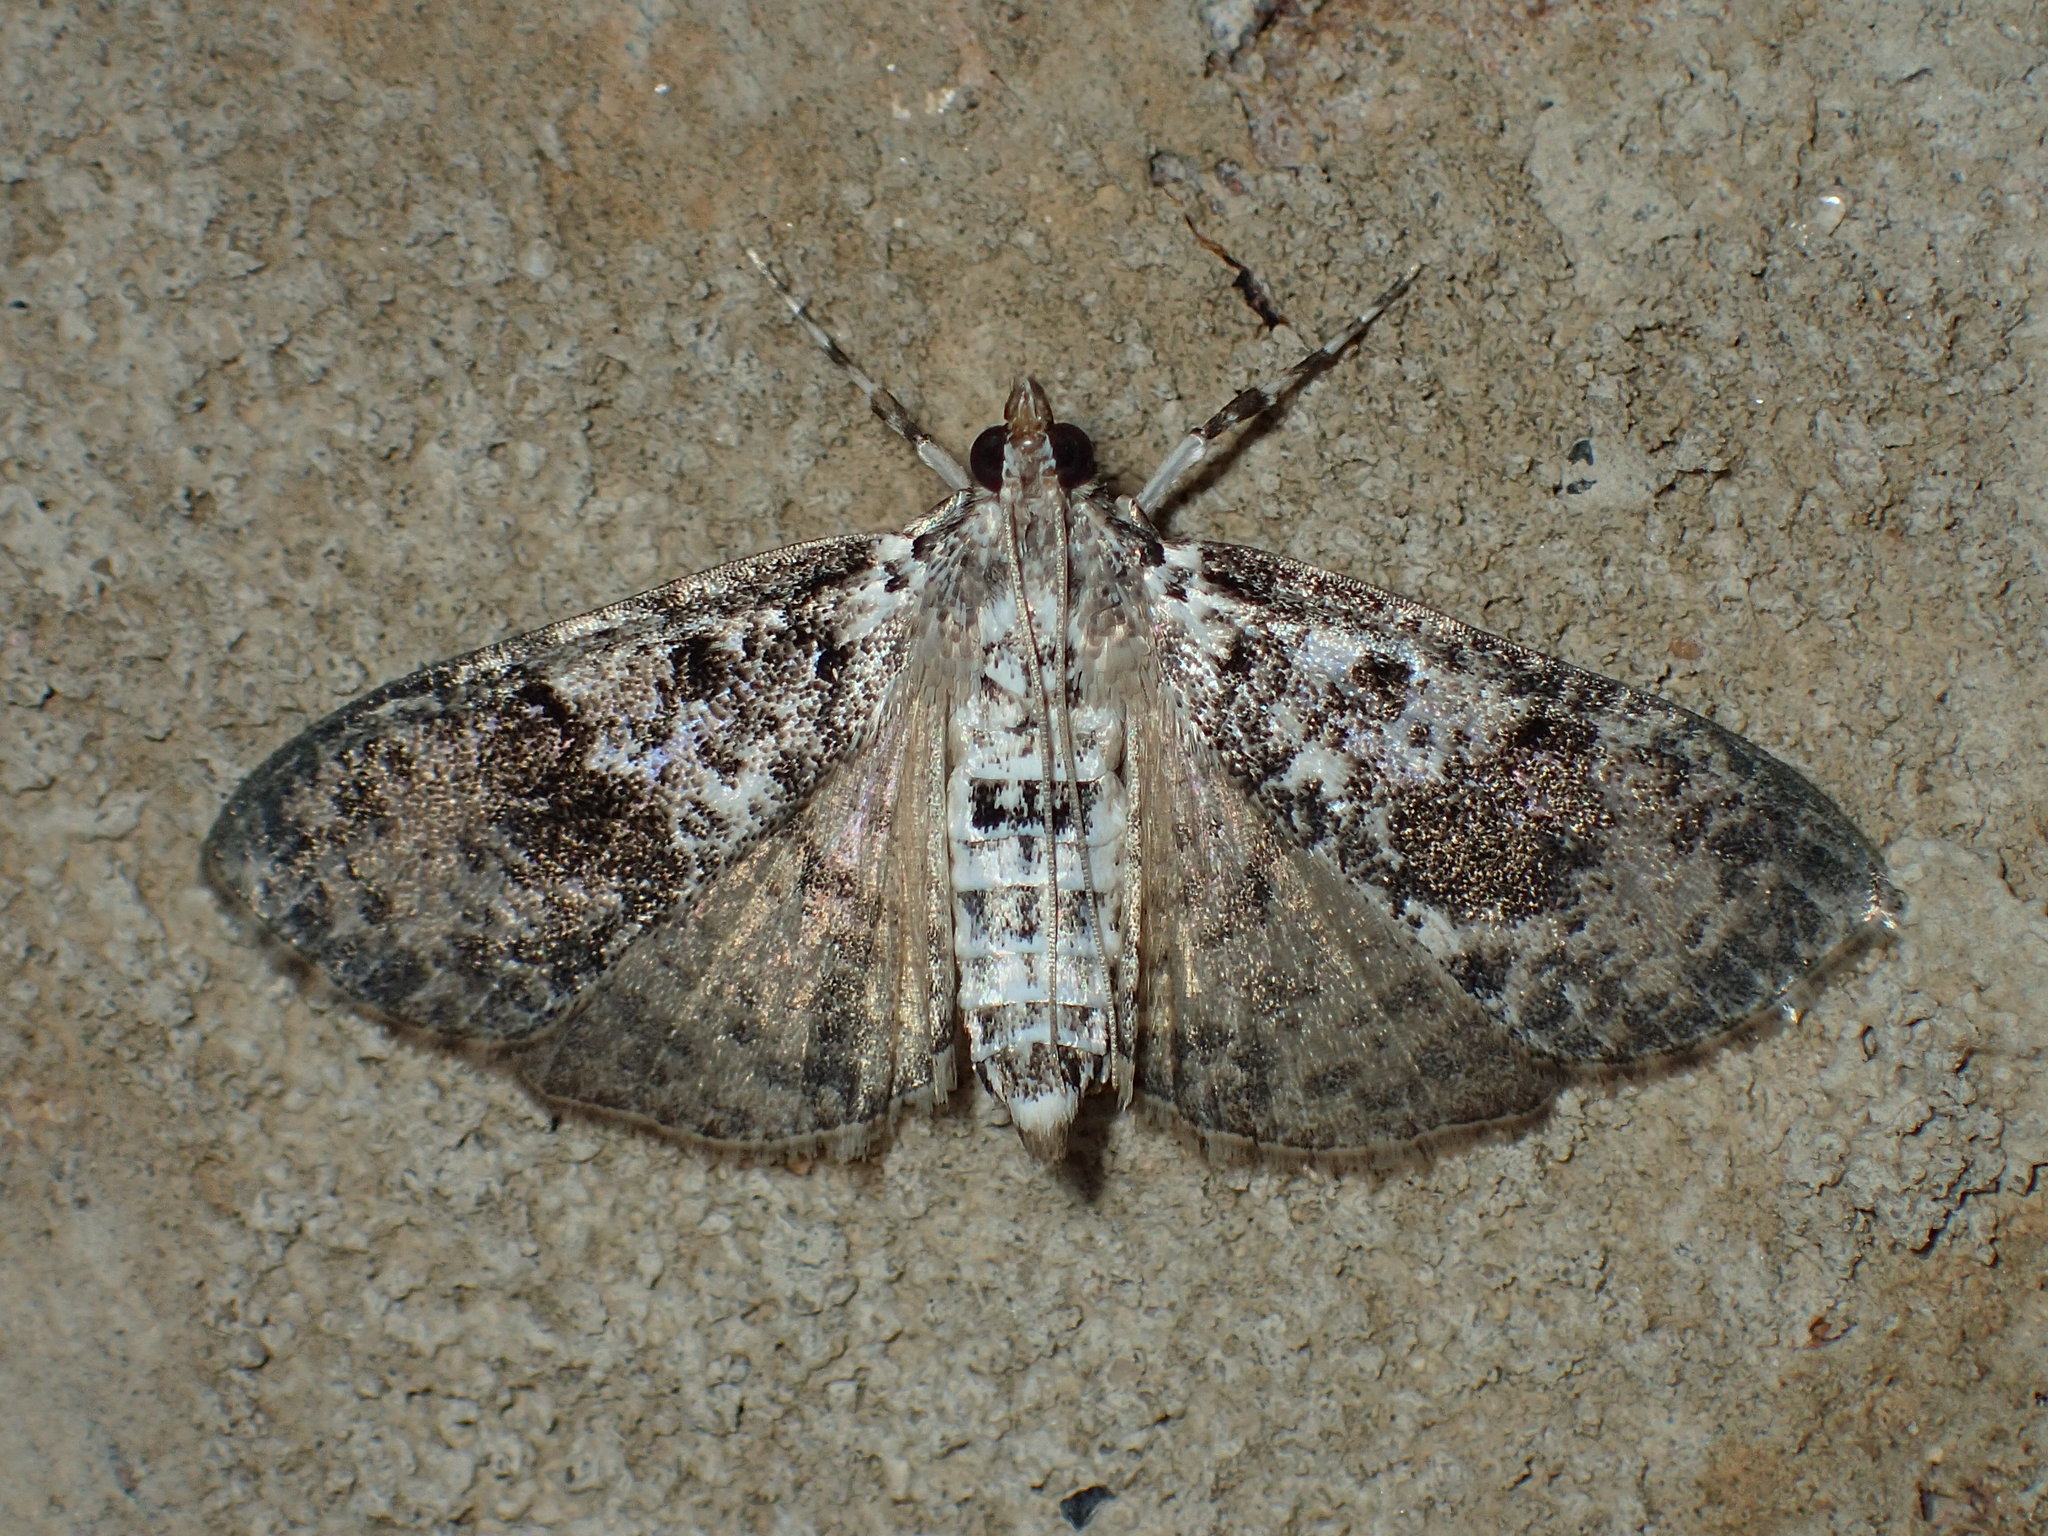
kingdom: Animalia
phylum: Arthropoda
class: Insecta
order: Lepidoptera
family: Crambidae
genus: Palpita
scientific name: Palpita magniferalis
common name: Splendid palpita moth
